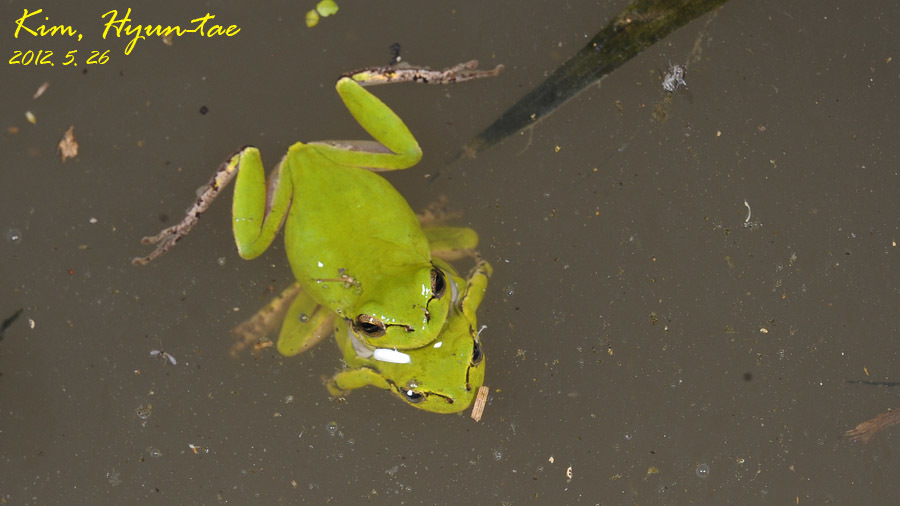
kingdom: Animalia
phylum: Chordata
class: Amphibia
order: Anura
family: Hylidae
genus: Dryophytes
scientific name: Dryophytes japonicus
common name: Japanese treefrog
